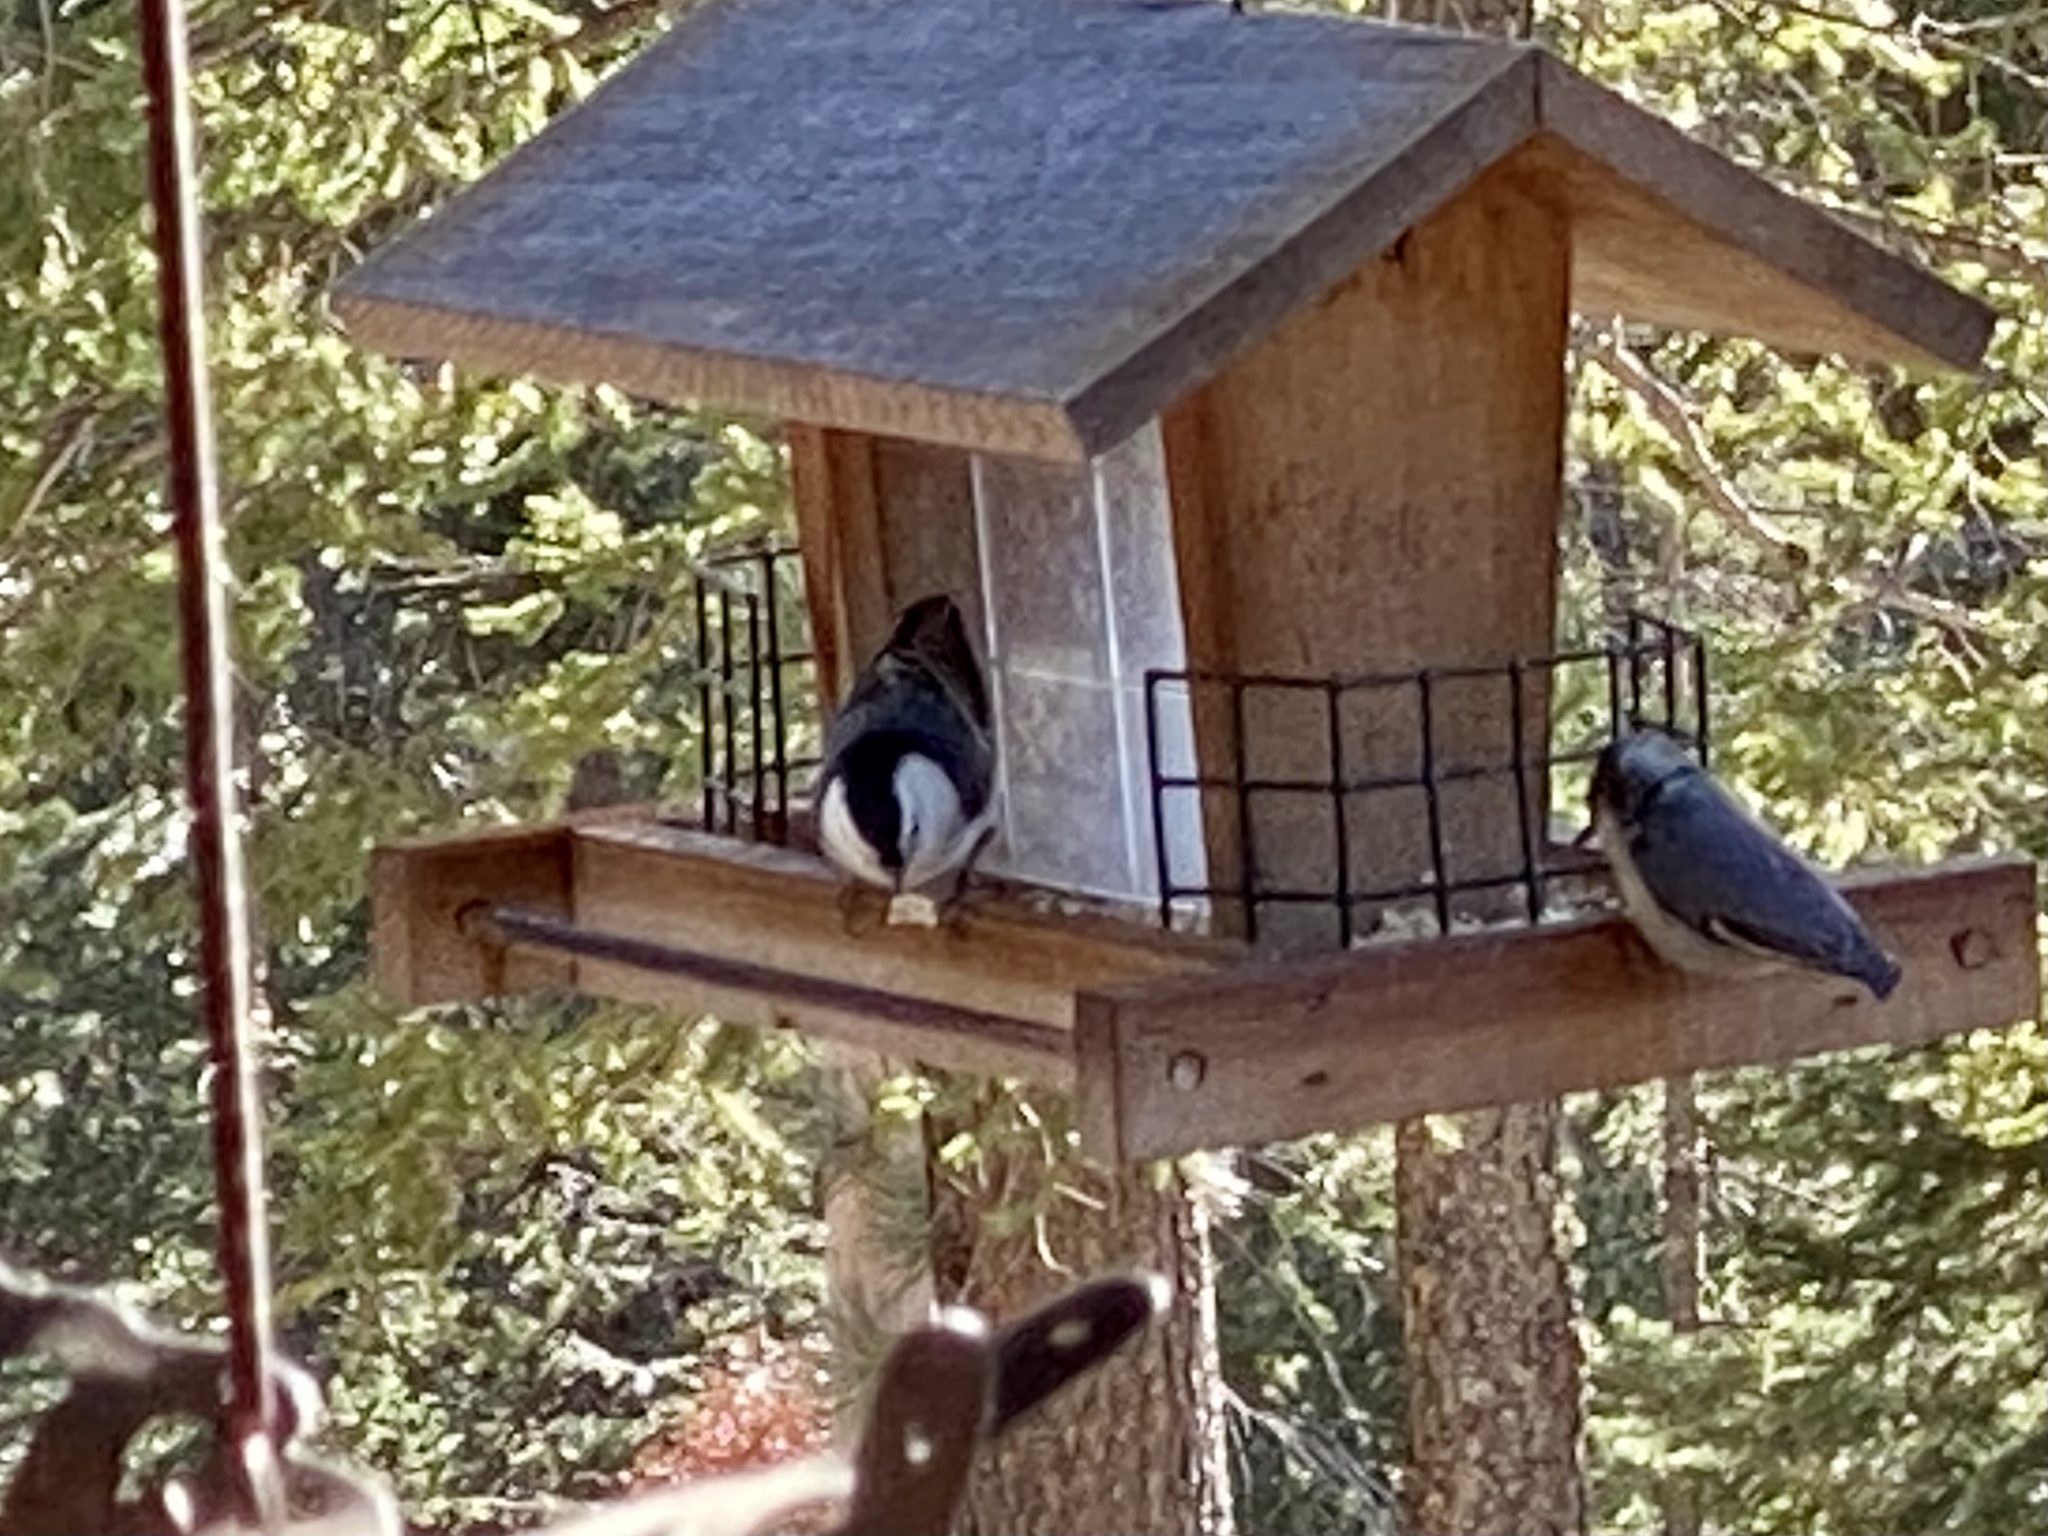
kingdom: Animalia
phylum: Chordata
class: Aves
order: Passeriformes
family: Sittidae
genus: Sitta
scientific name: Sitta carolinensis
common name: White-breasted nuthatch
